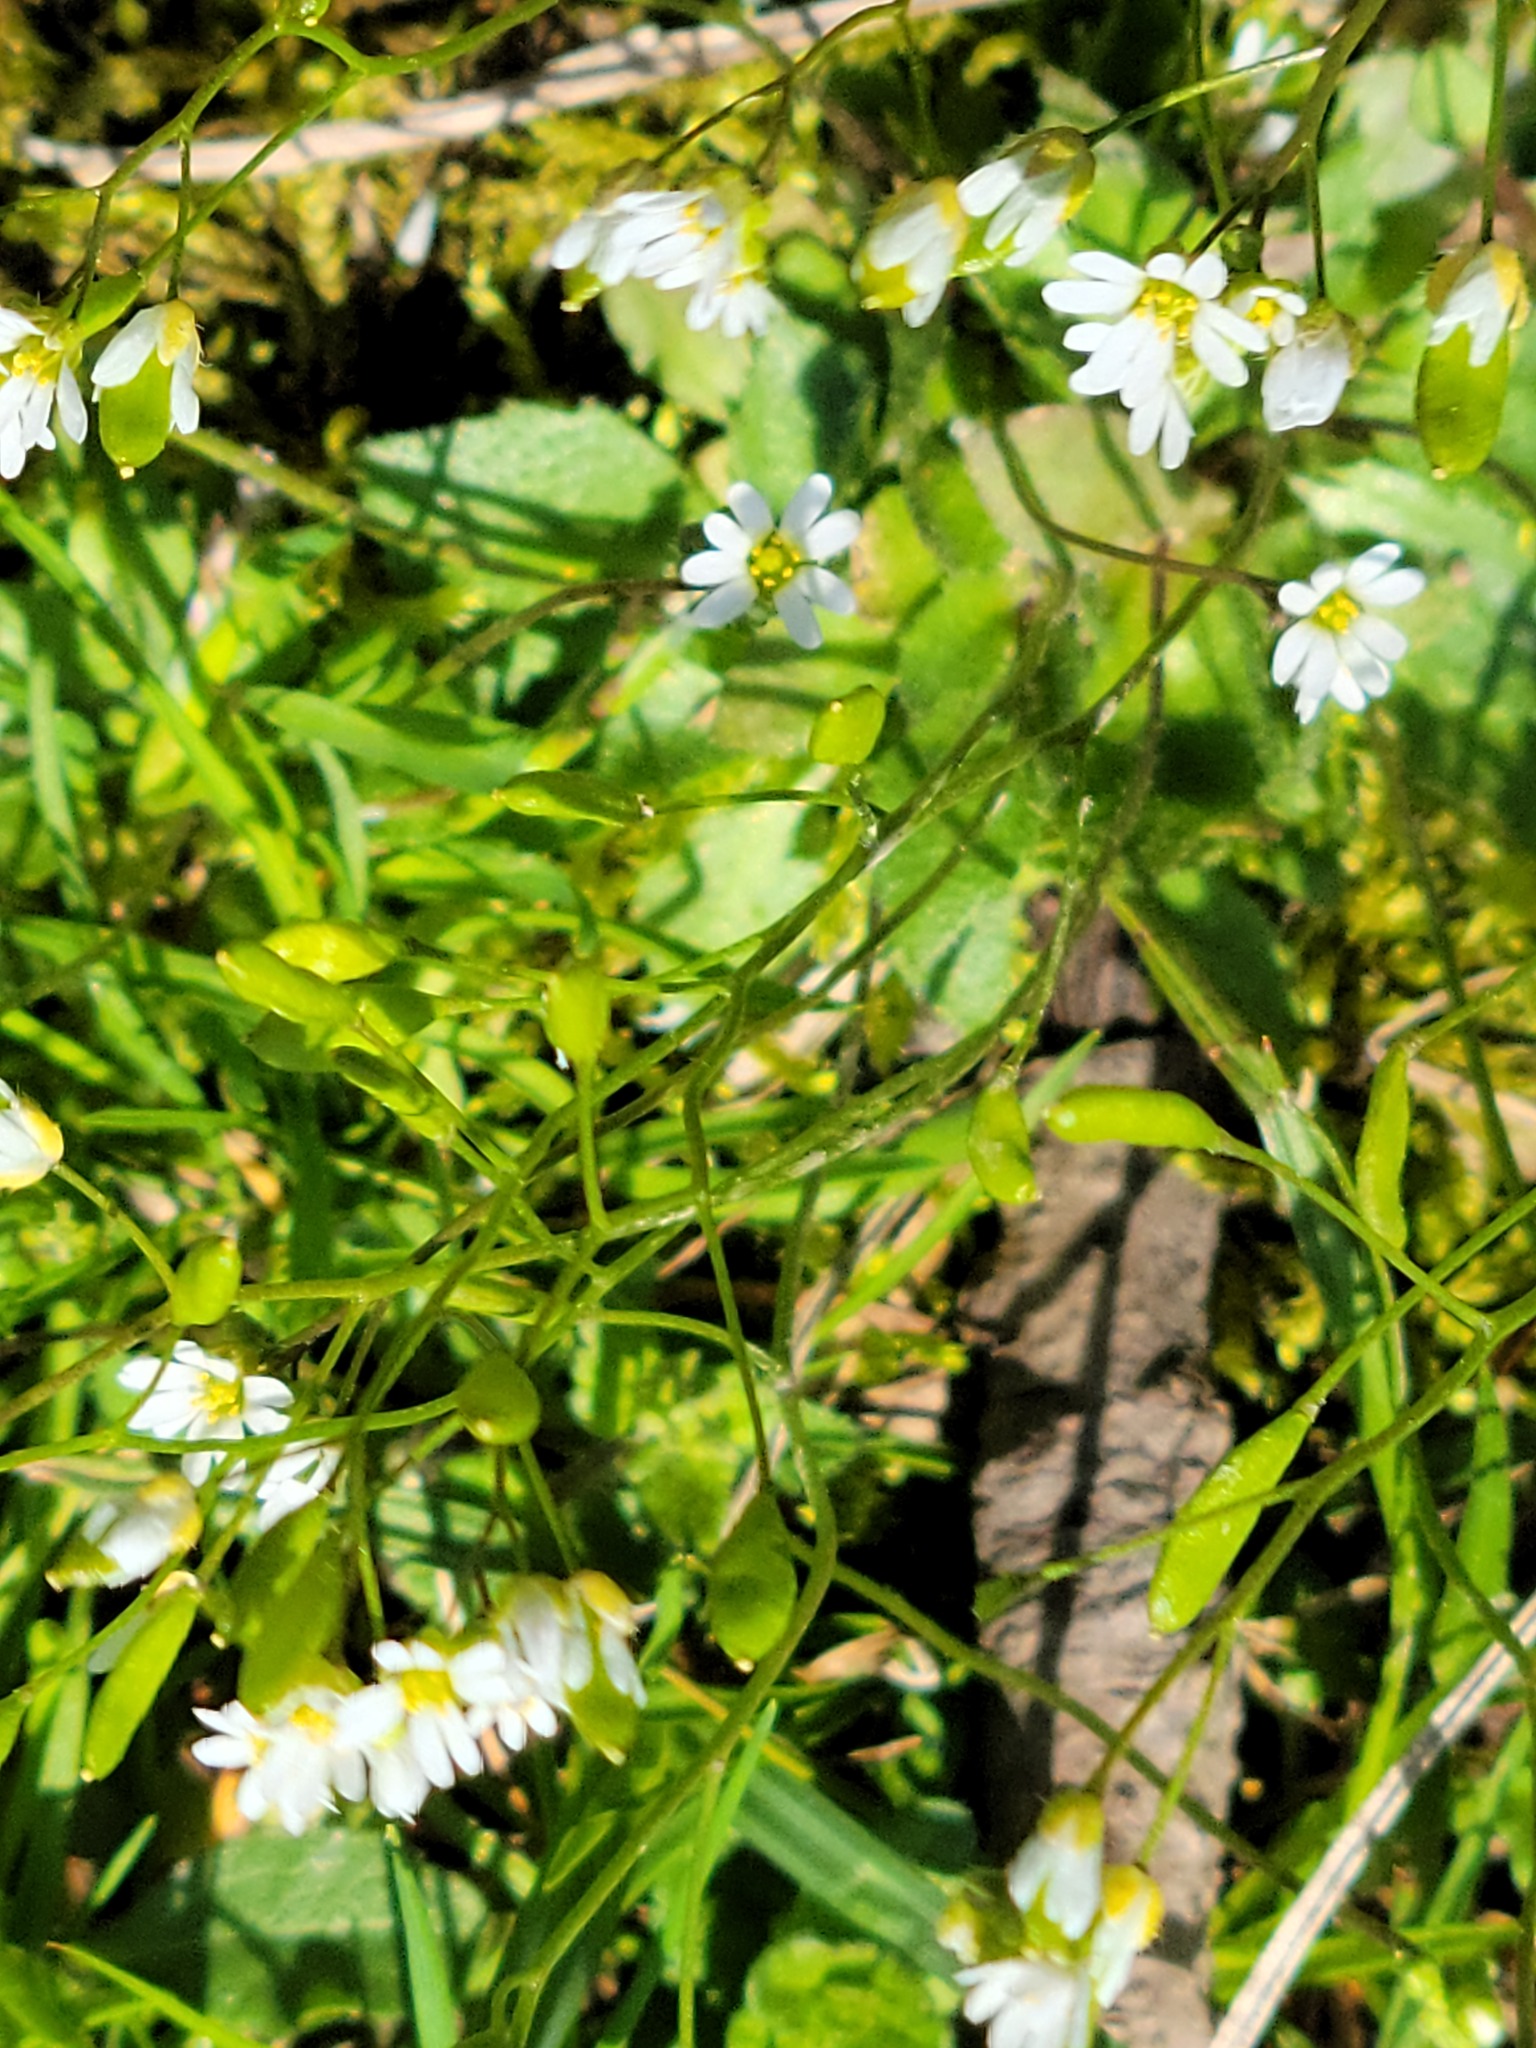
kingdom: Plantae
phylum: Tracheophyta
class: Magnoliopsida
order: Brassicales
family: Brassicaceae
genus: Draba
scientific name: Draba verna
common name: Spring draba
